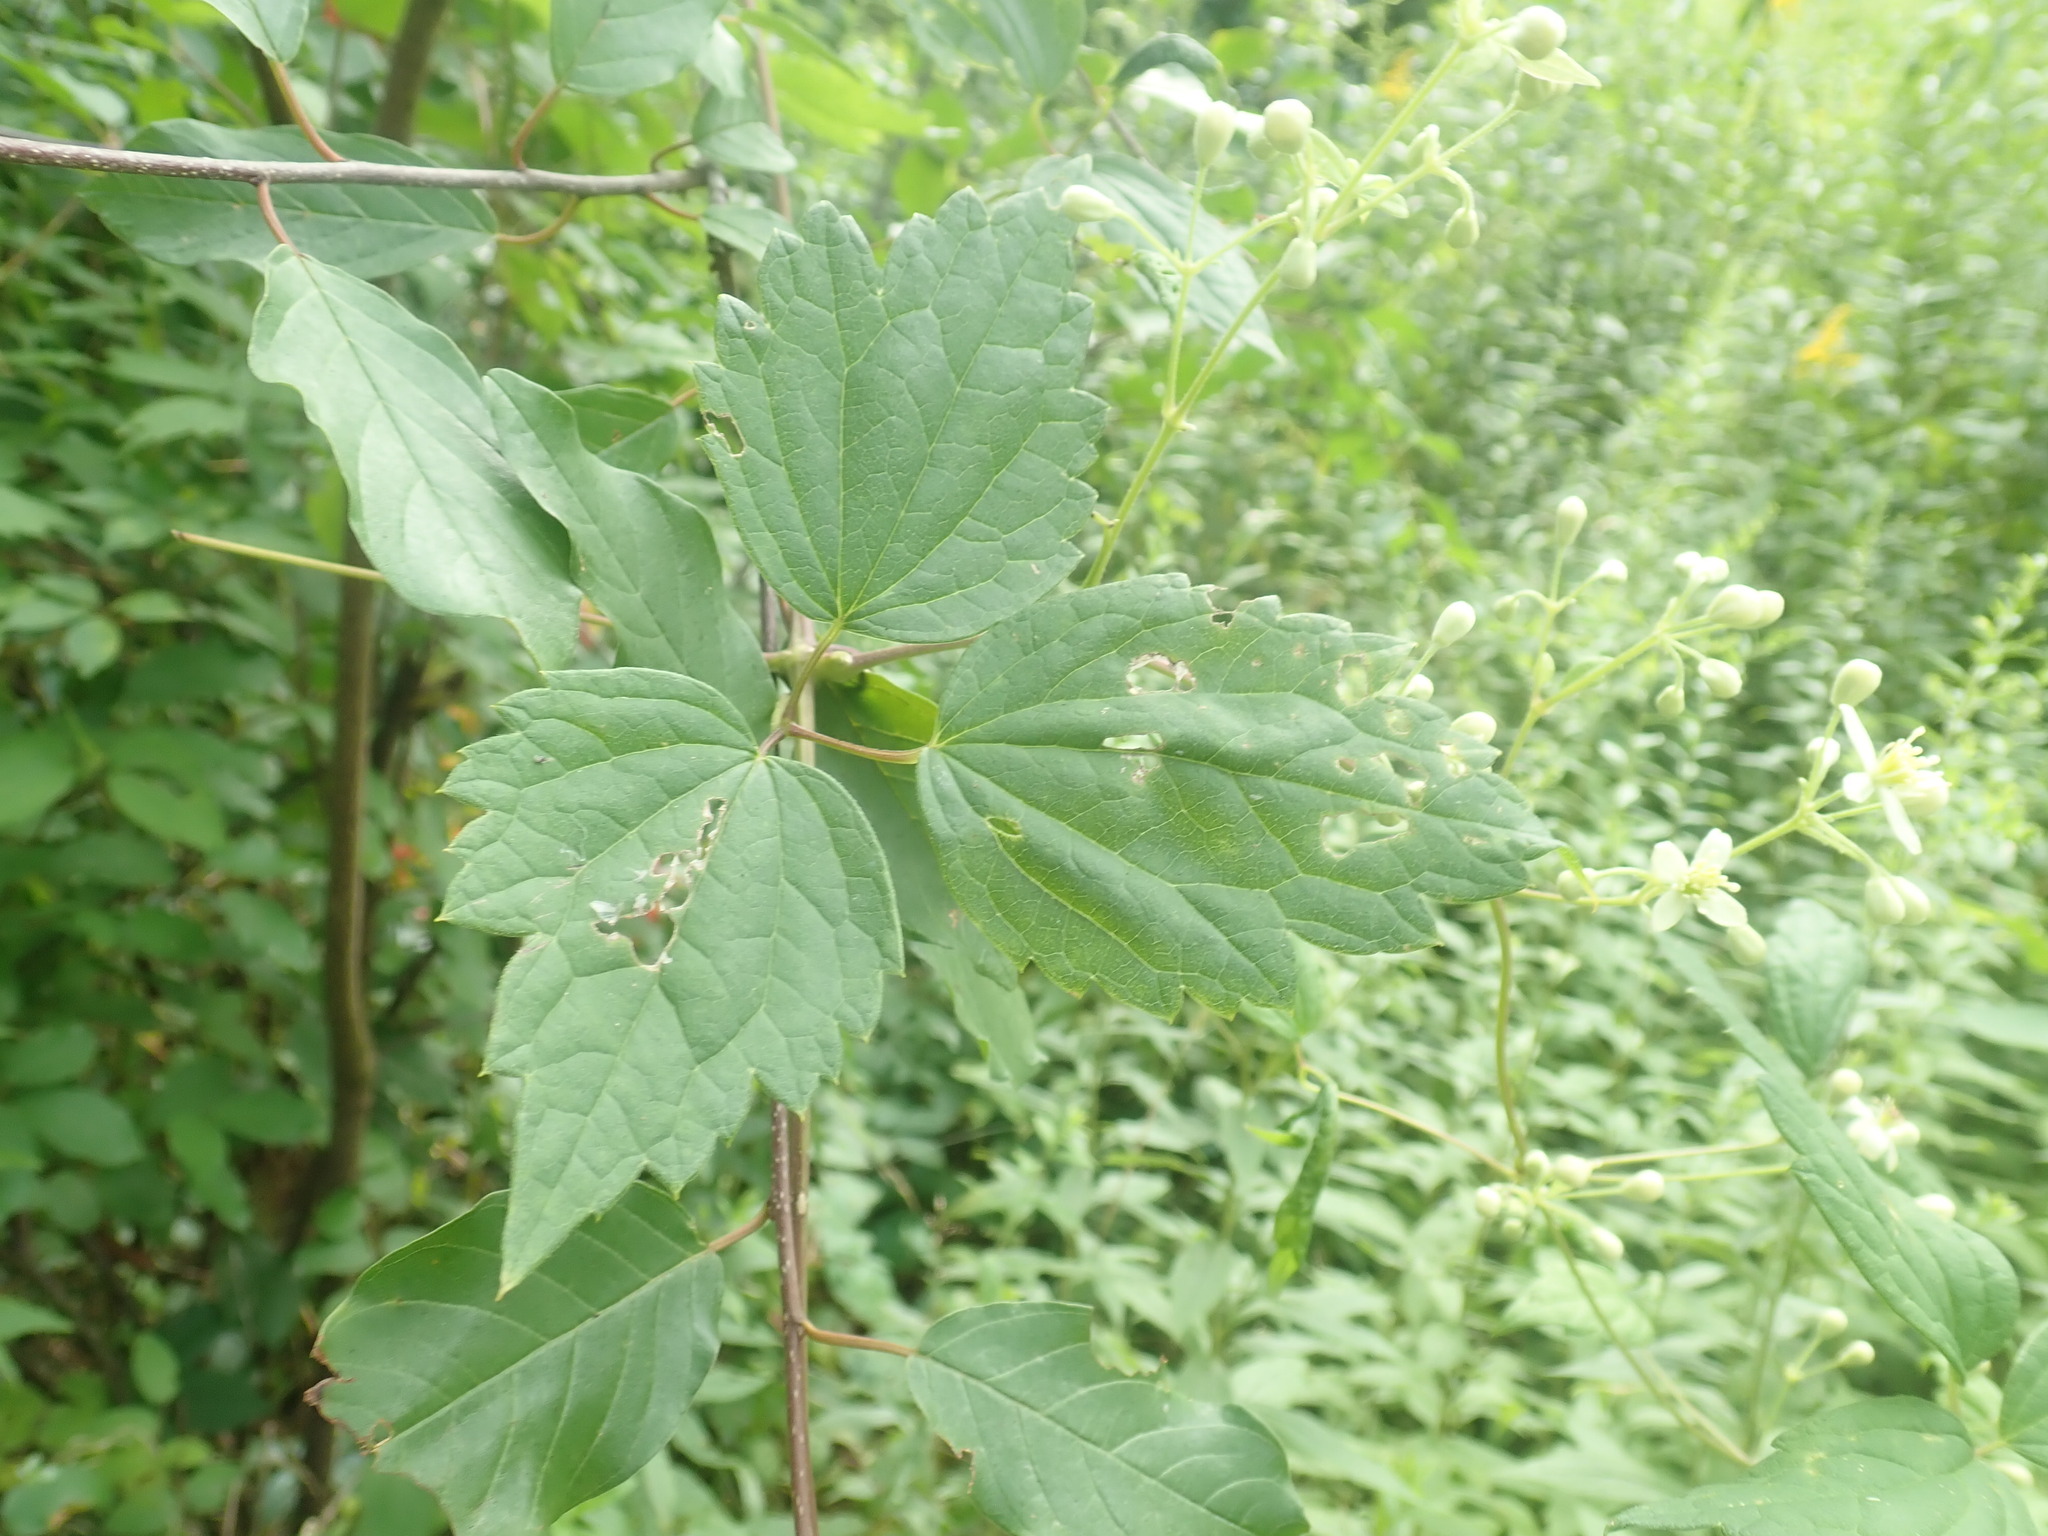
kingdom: Plantae
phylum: Tracheophyta
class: Magnoliopsida
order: Ranunculales
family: Ranunculaceae
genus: Clematis
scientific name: Clematis virginiana
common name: Virgin's-bower
